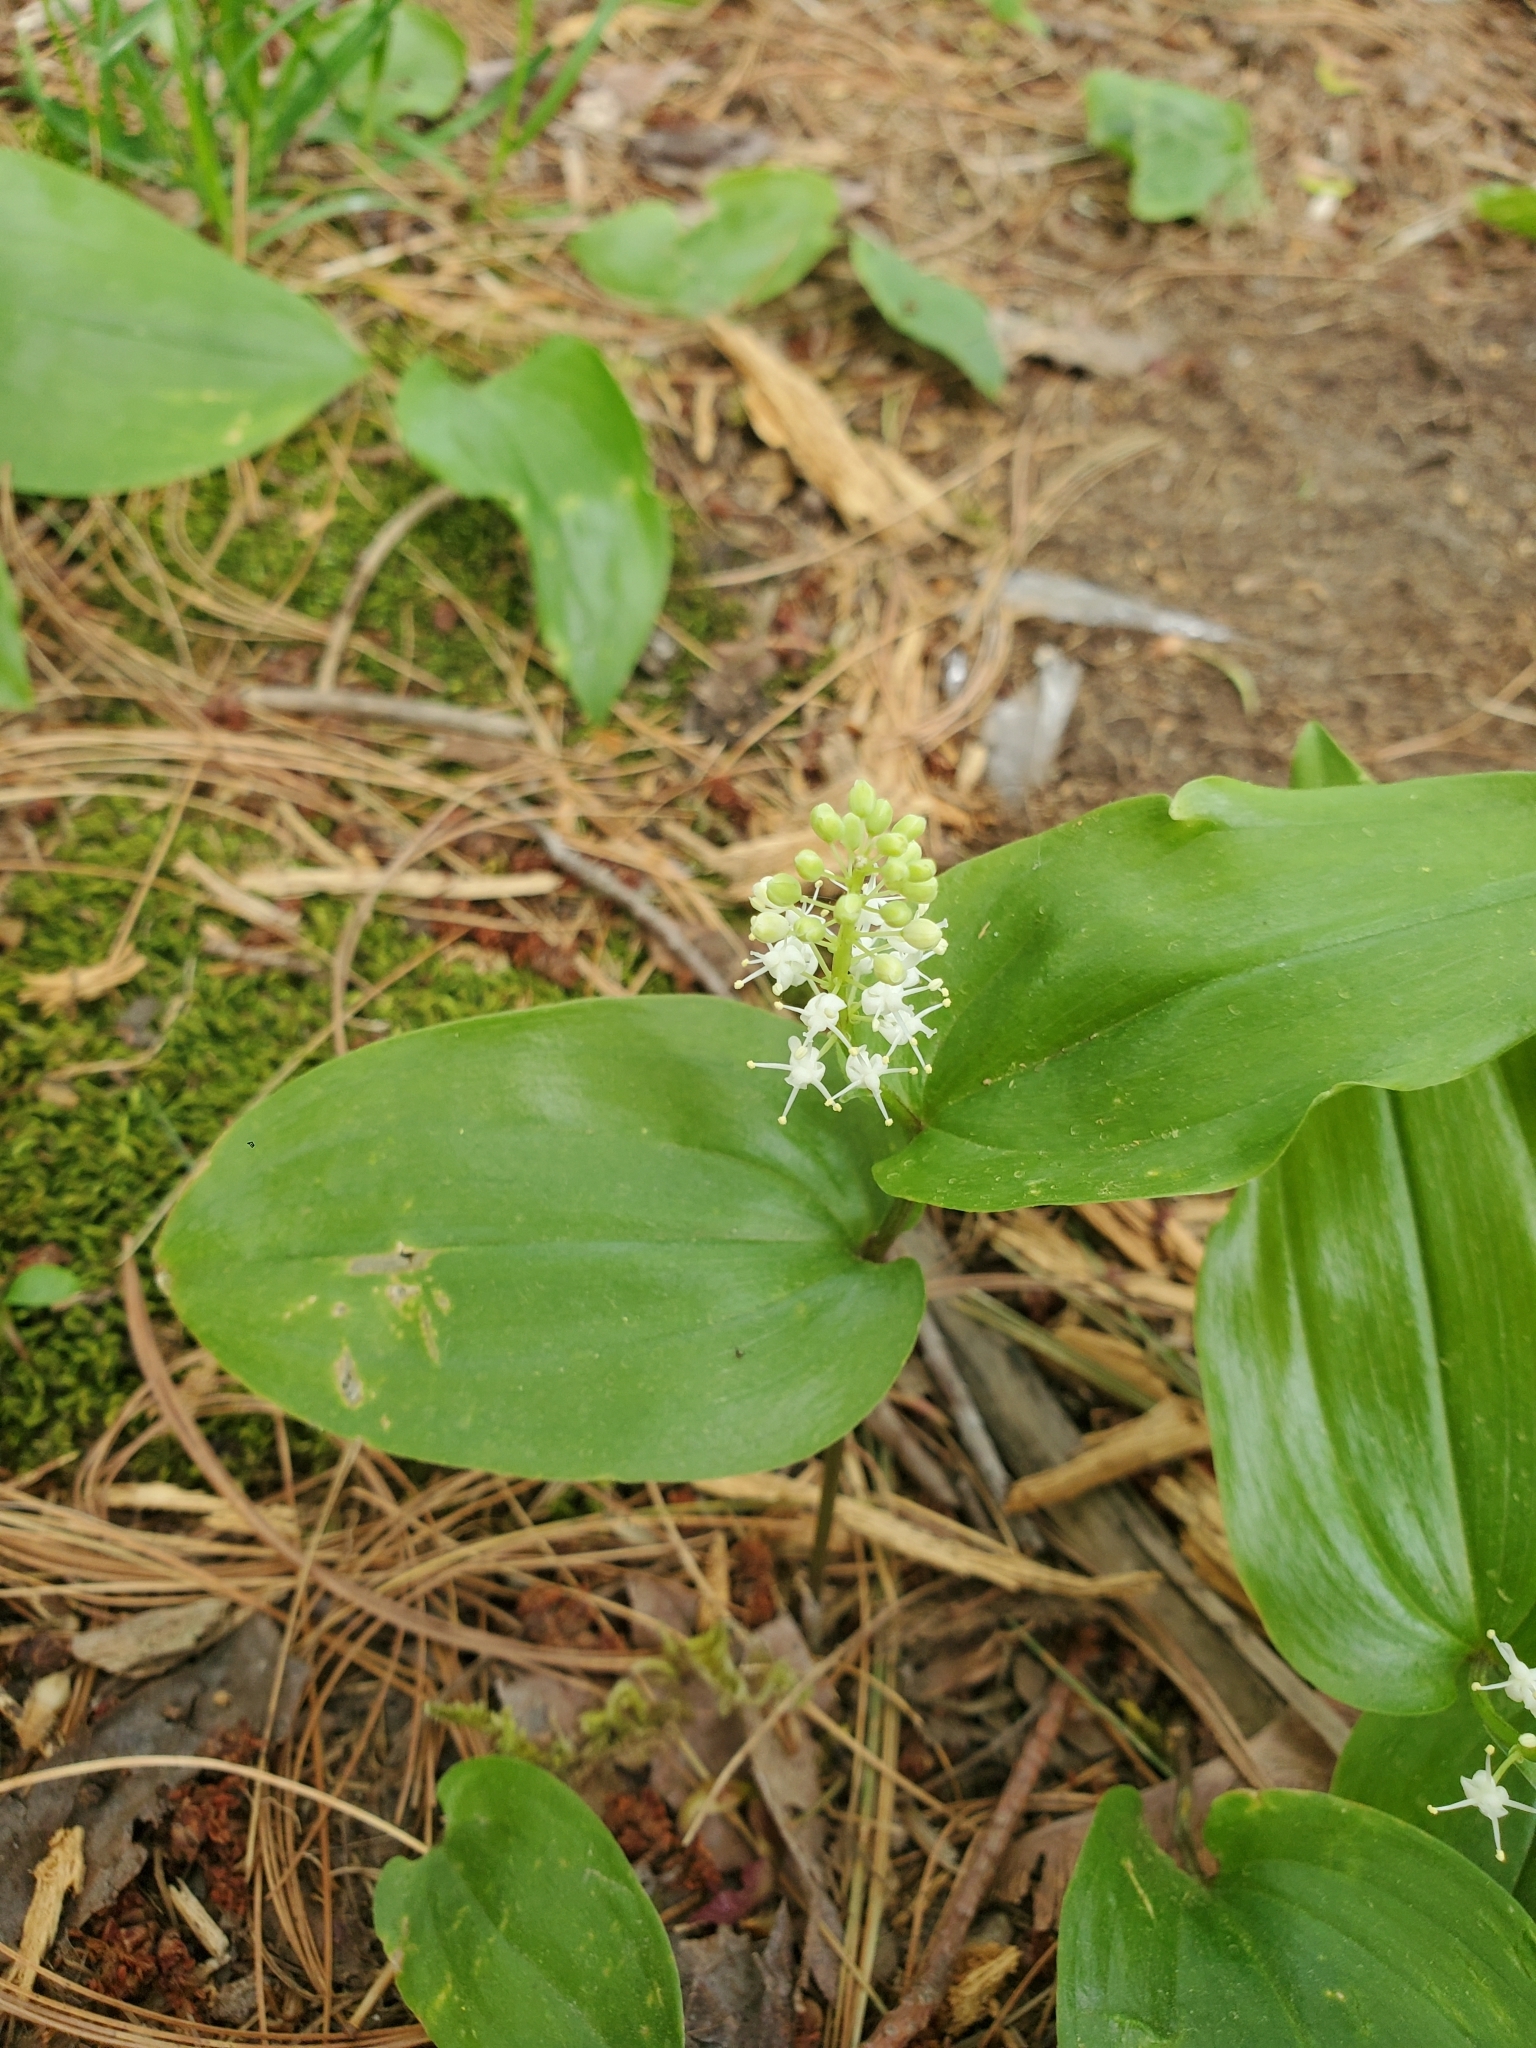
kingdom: Plantae
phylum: Tracheophyta
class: Liliopsida
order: Asparagales
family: Asparagaceae
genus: Maianthemum
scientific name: Maianthemum canadense
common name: False lily-of-the-valley
